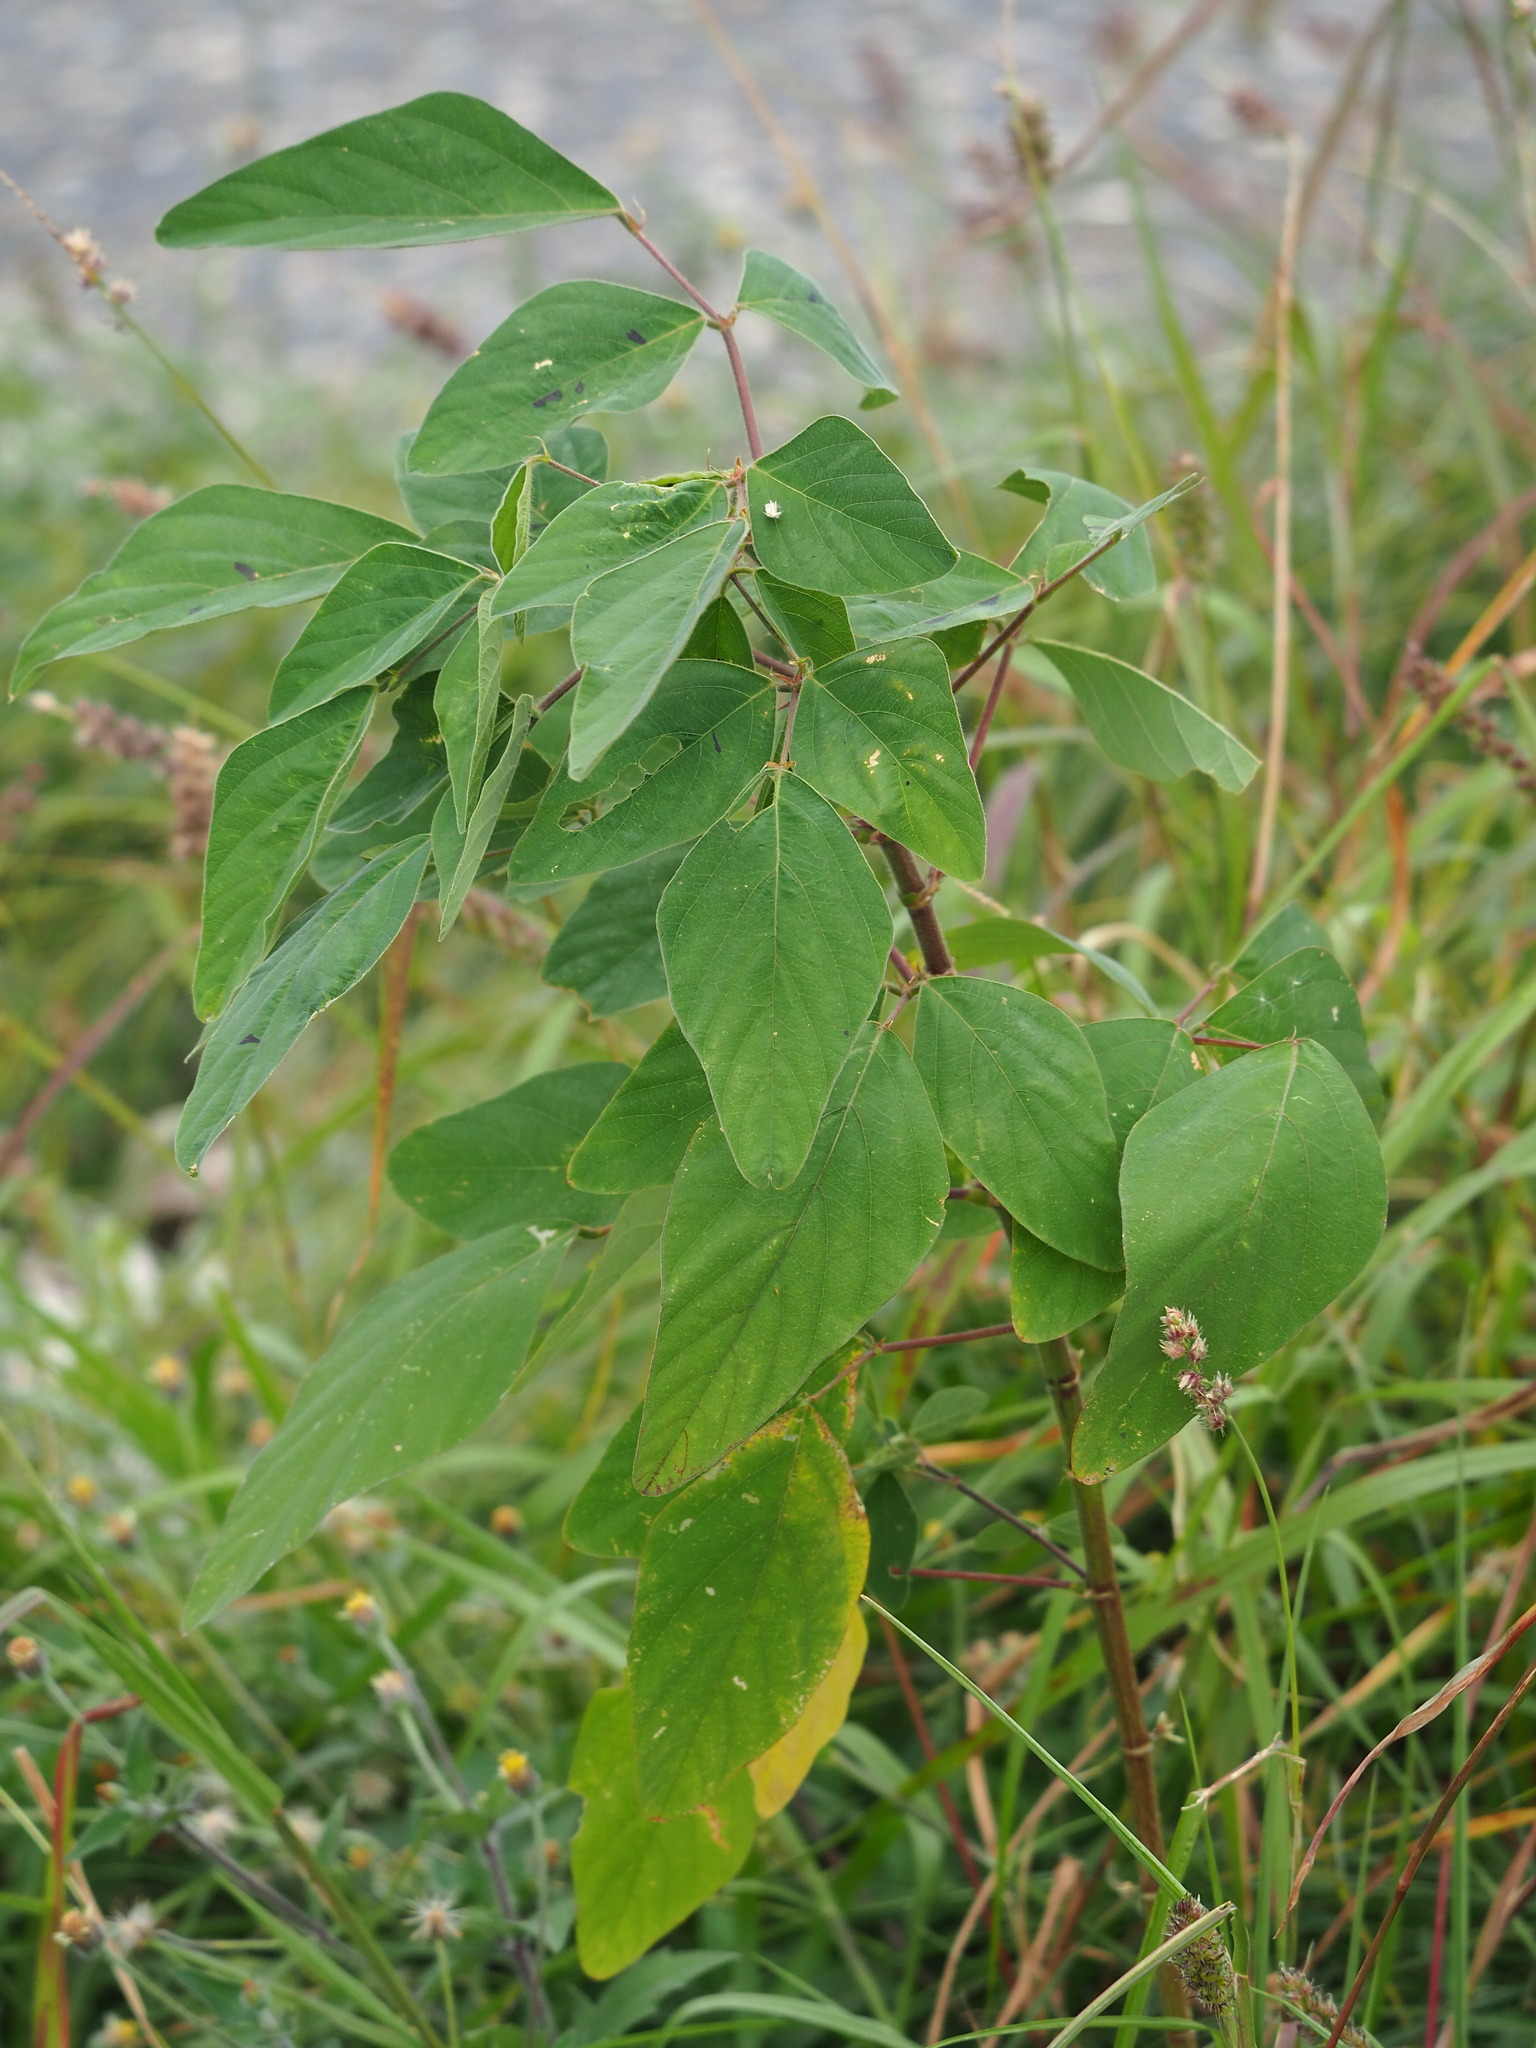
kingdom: Plantae
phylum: Tracheophyta
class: Magnoliopsida
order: Fabales
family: Fabaceae
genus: Desmodium
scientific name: Desmodium tortuosum
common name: Dixie ticktrefoil
